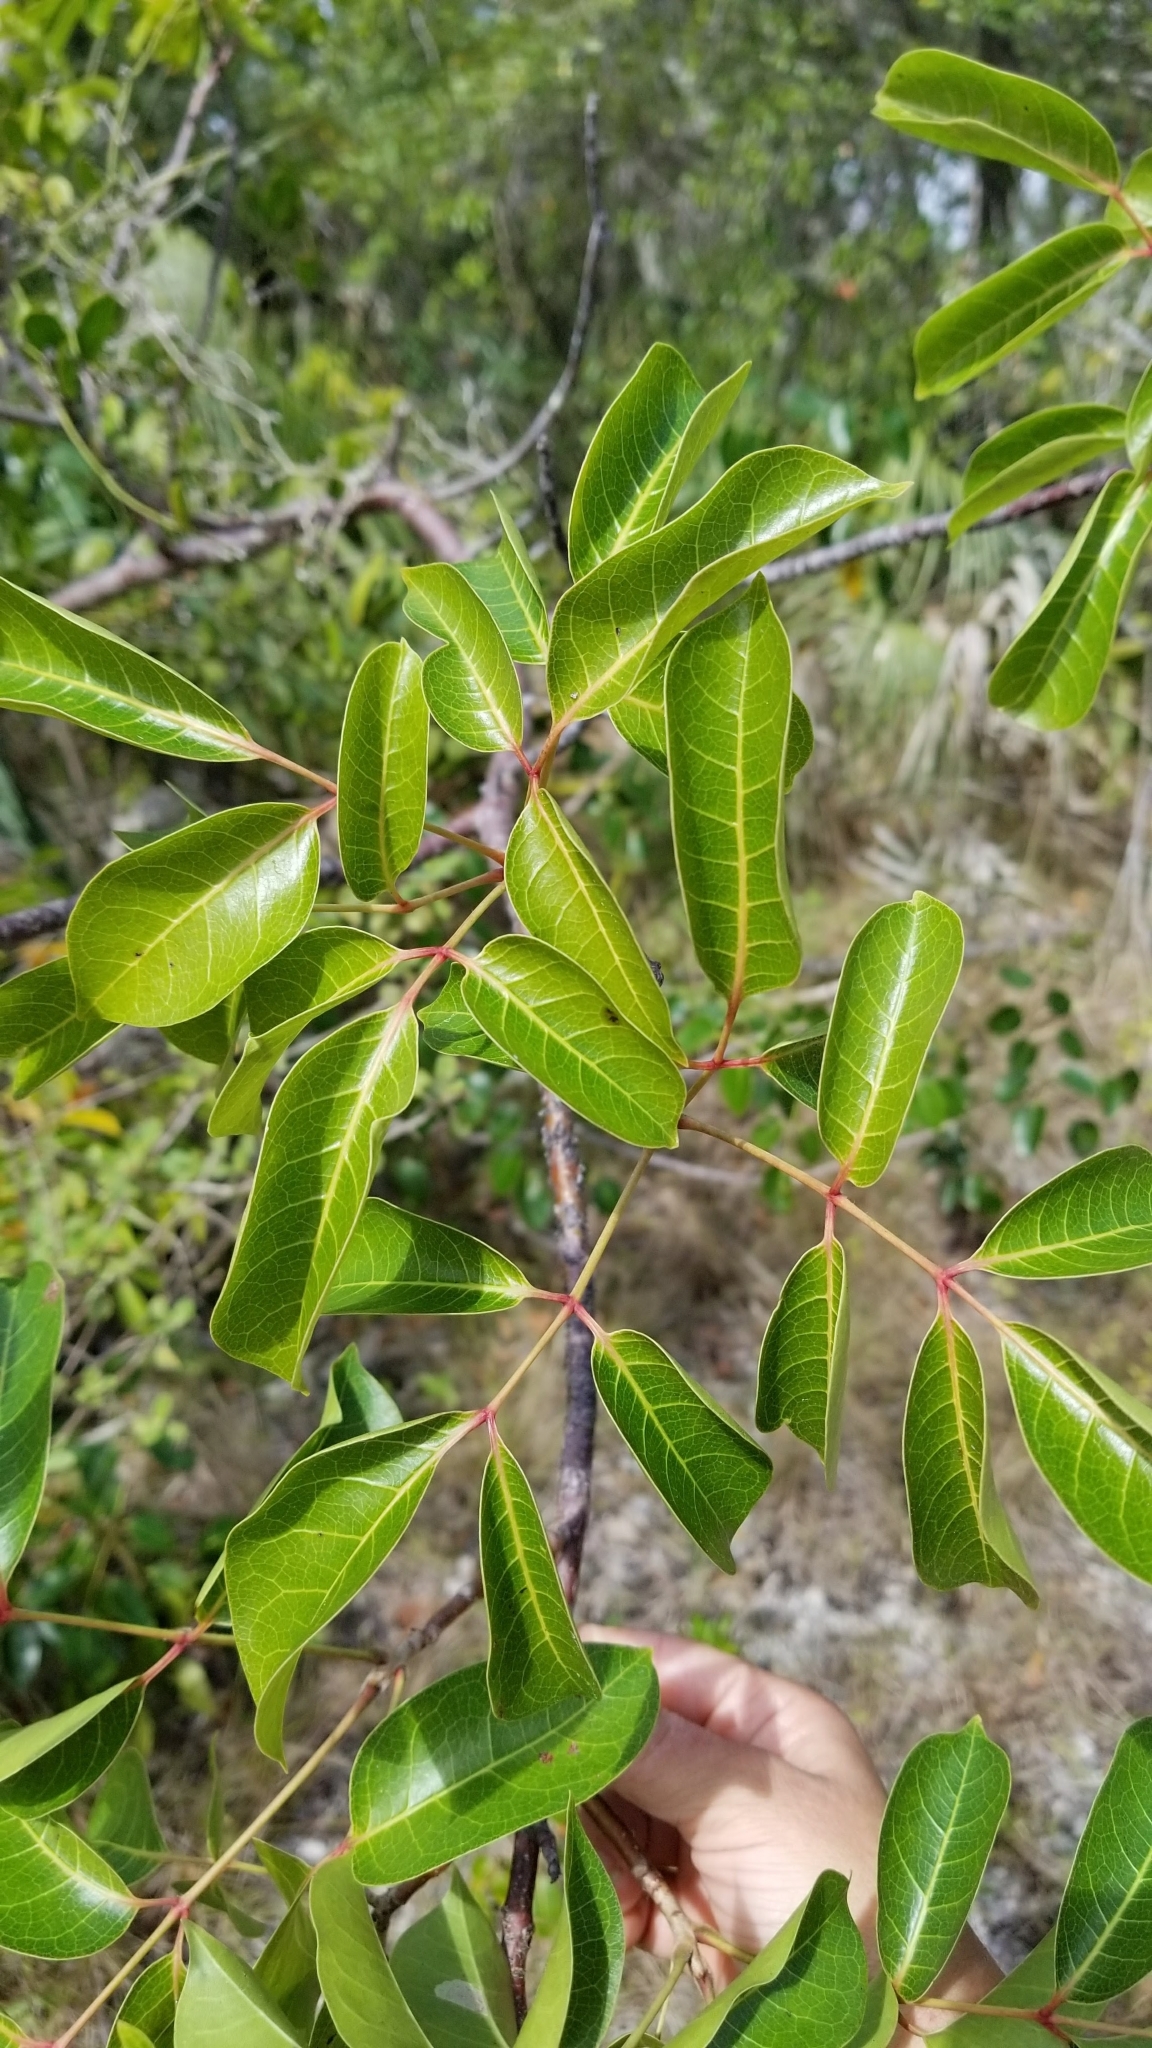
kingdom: Plantae
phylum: Tracheophyta
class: Magnoliopsida
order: Sapindales
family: Burseraceae
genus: Bursera
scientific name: Bursera simaruba
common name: Turpentine tree
